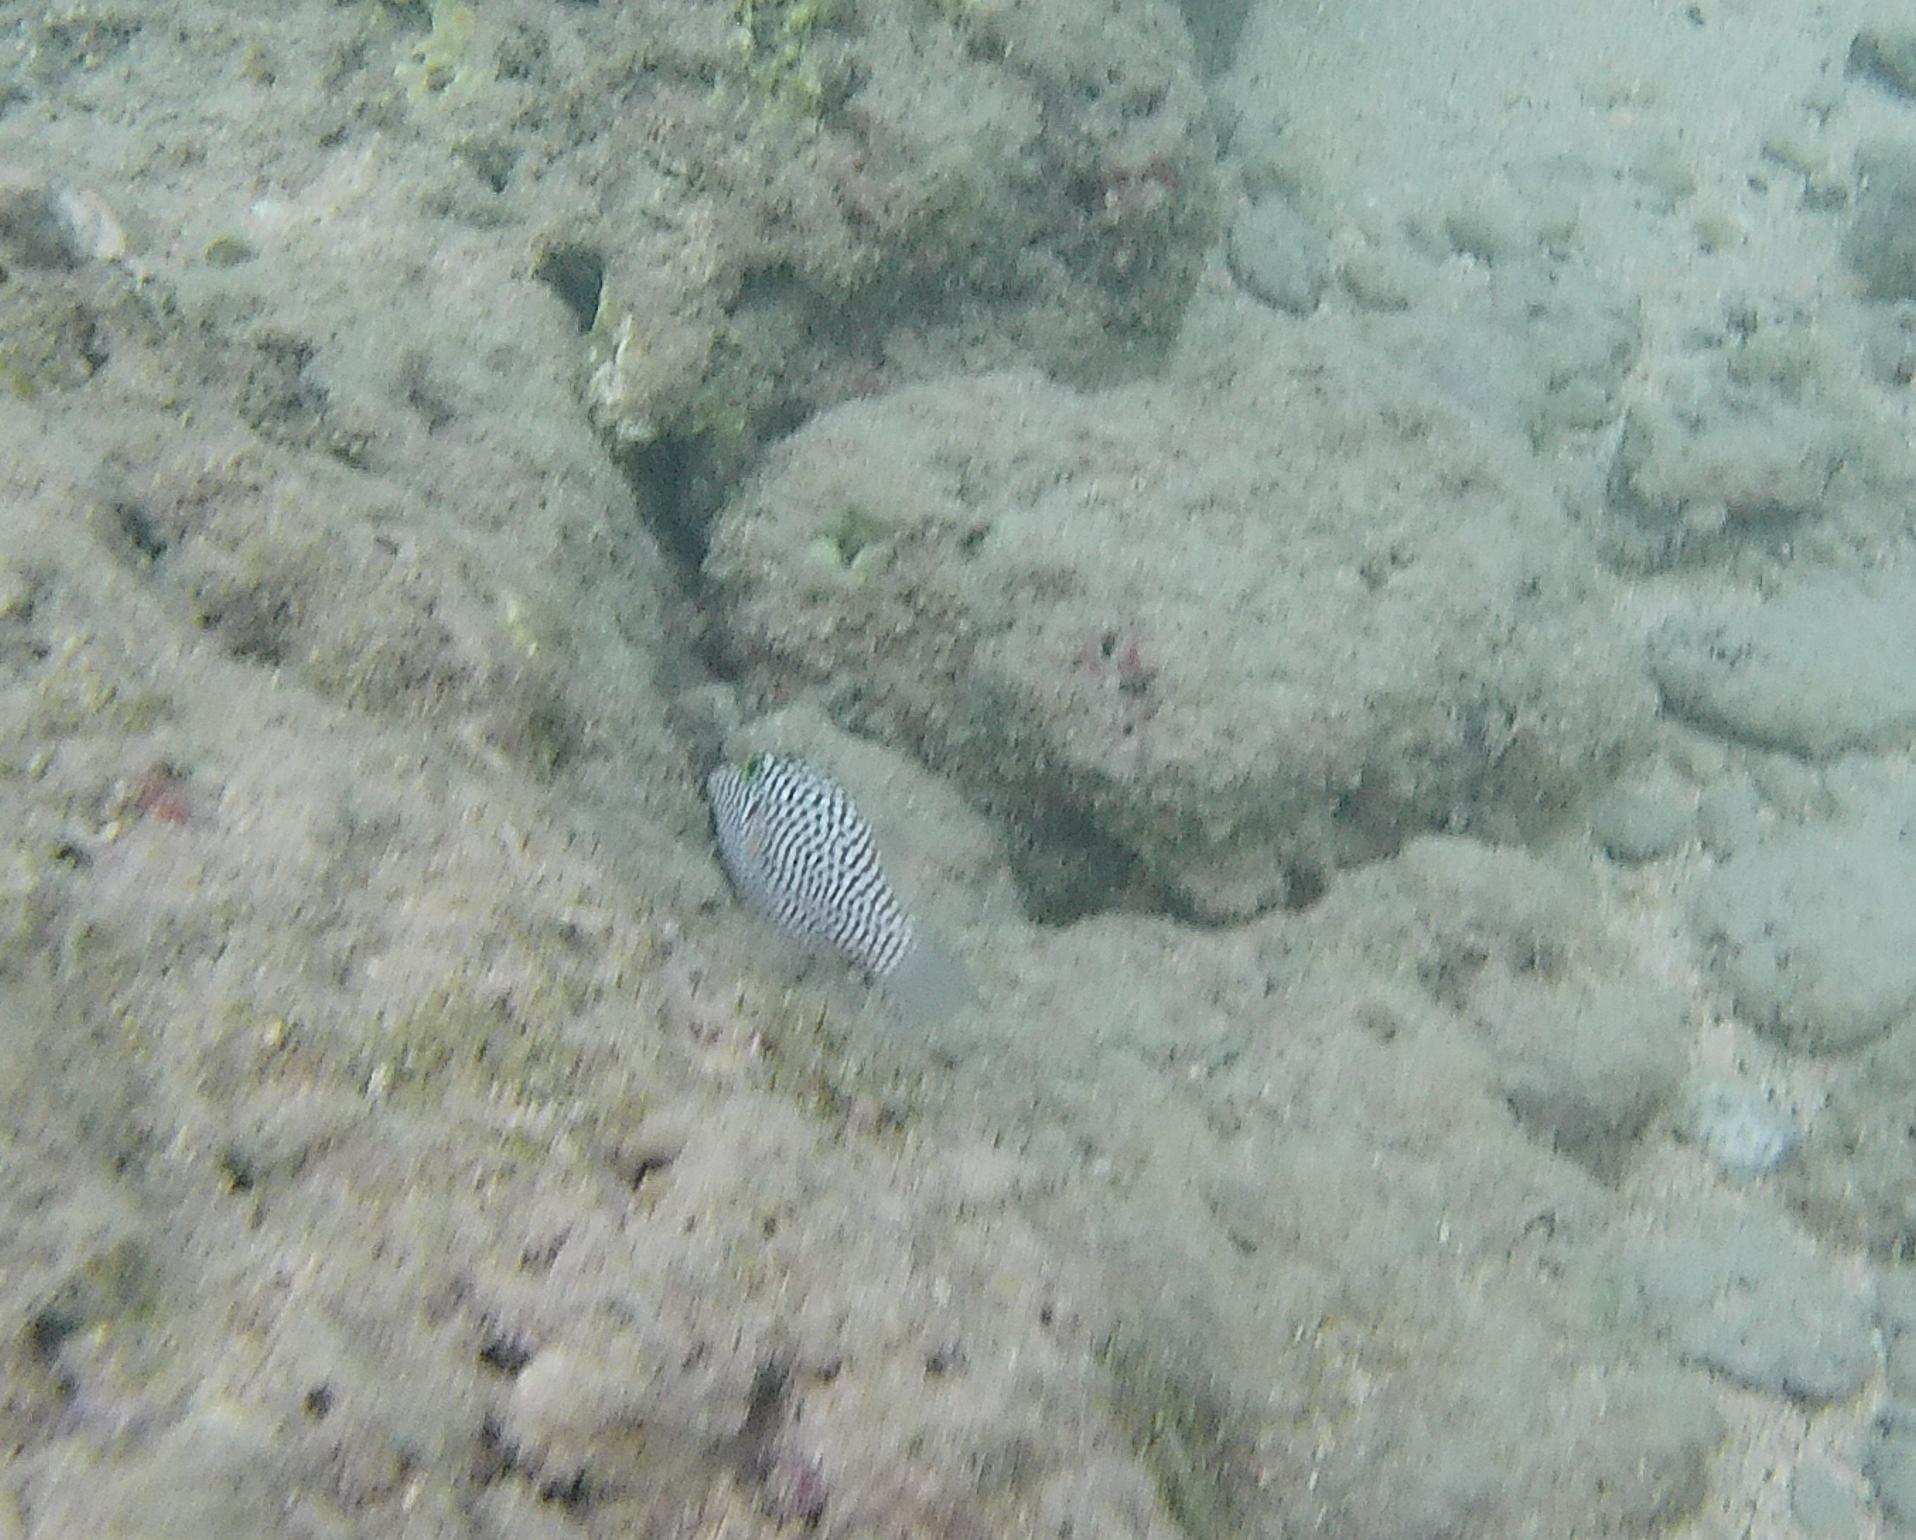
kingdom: Animalia
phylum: Chordata
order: Tetraodontiformes
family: Tetraodontidae
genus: Canthigaster
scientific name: Canthigaster jactator
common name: Hawaiian whitespotted toby
